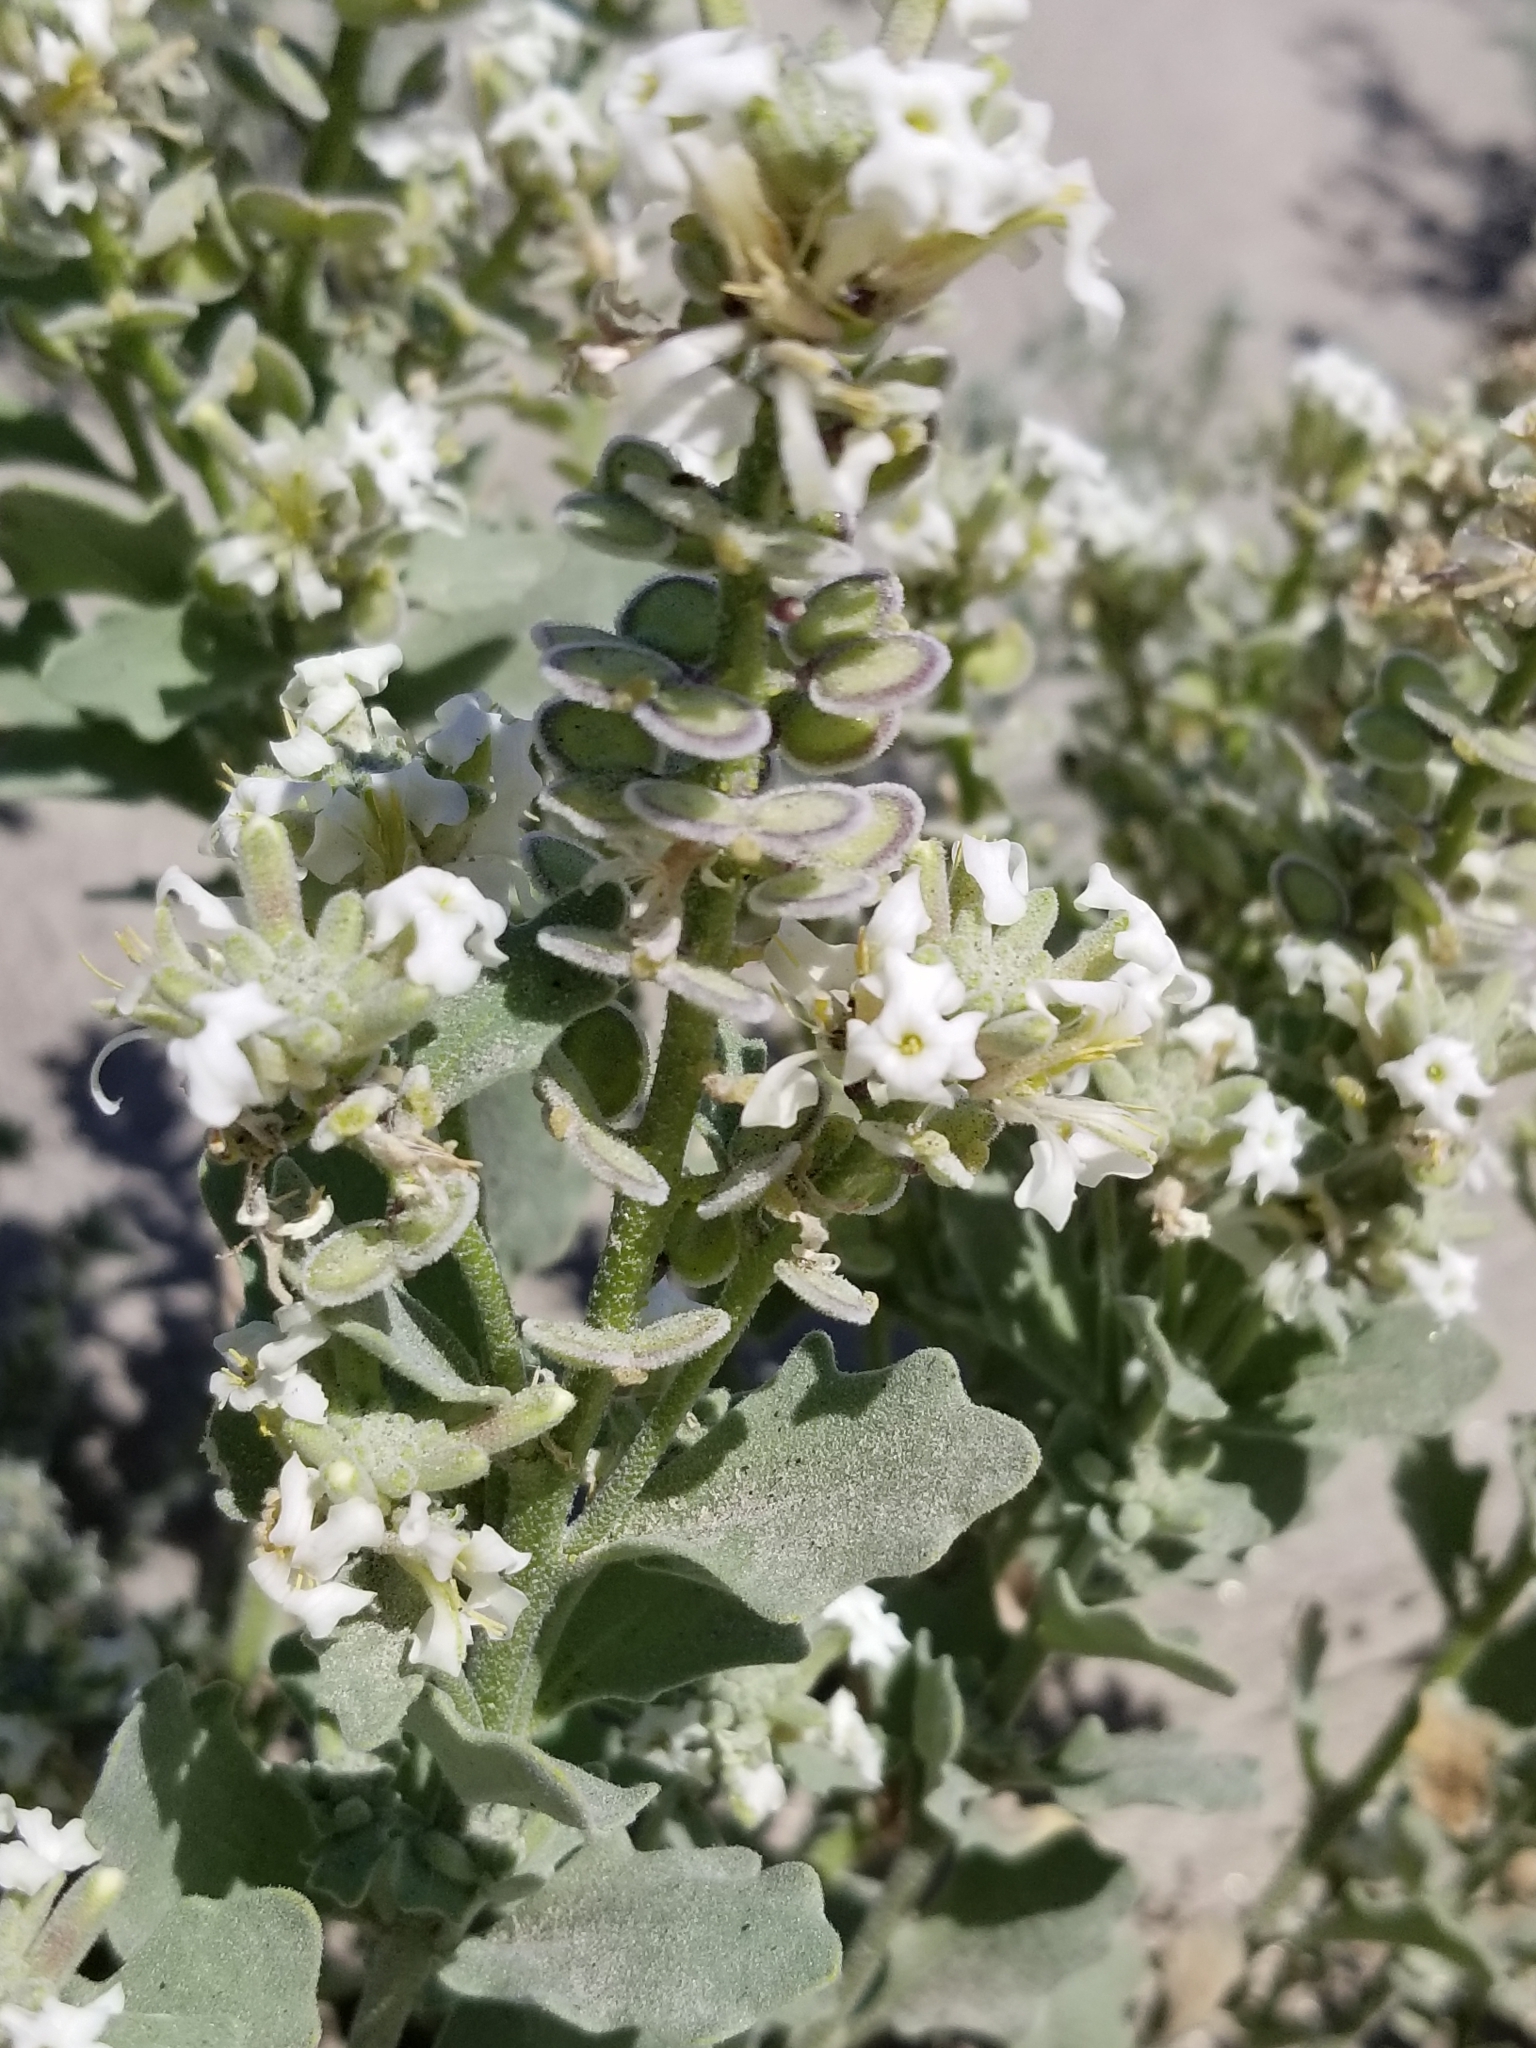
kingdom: Plantae
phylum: Tracheophyta
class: Magnoliopsida
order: Brassicales
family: Brassicaceae
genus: Dithyrea
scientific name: Dithyrea californica
